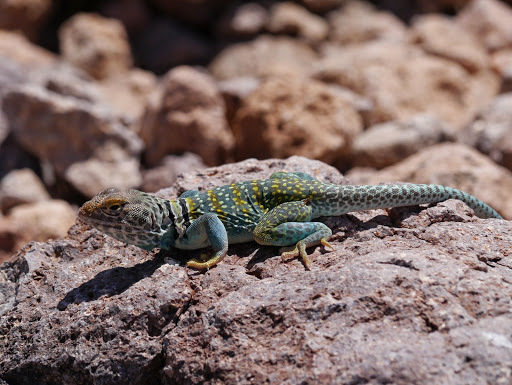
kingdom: Animalia
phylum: Chordata
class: Squamata
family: Crotaphytidae
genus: Crotaphytus
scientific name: Crotaphytus collaris
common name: Collared lizard
